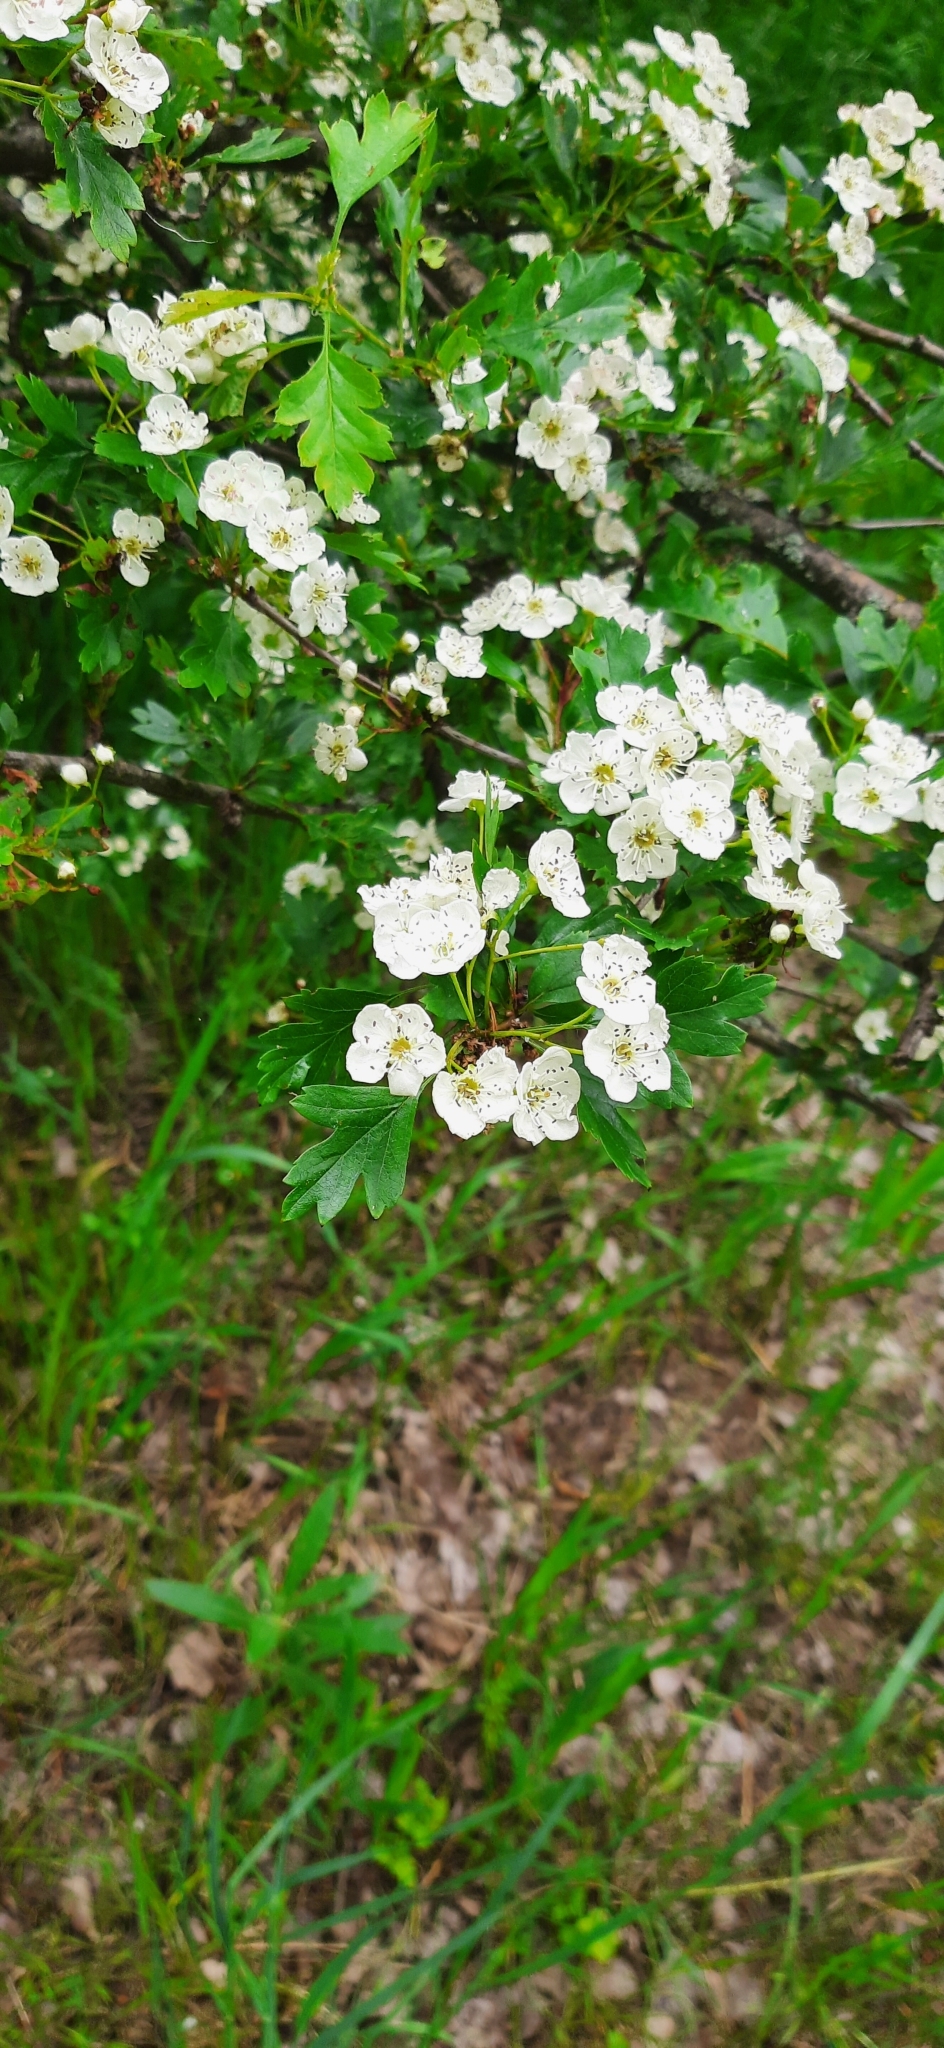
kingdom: Plantae
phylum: Tracheophyta
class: Magnoliopsida
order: Rosales
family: Rosaceae
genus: Crataegus
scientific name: Crataegus monogyna
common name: Hawthorn
